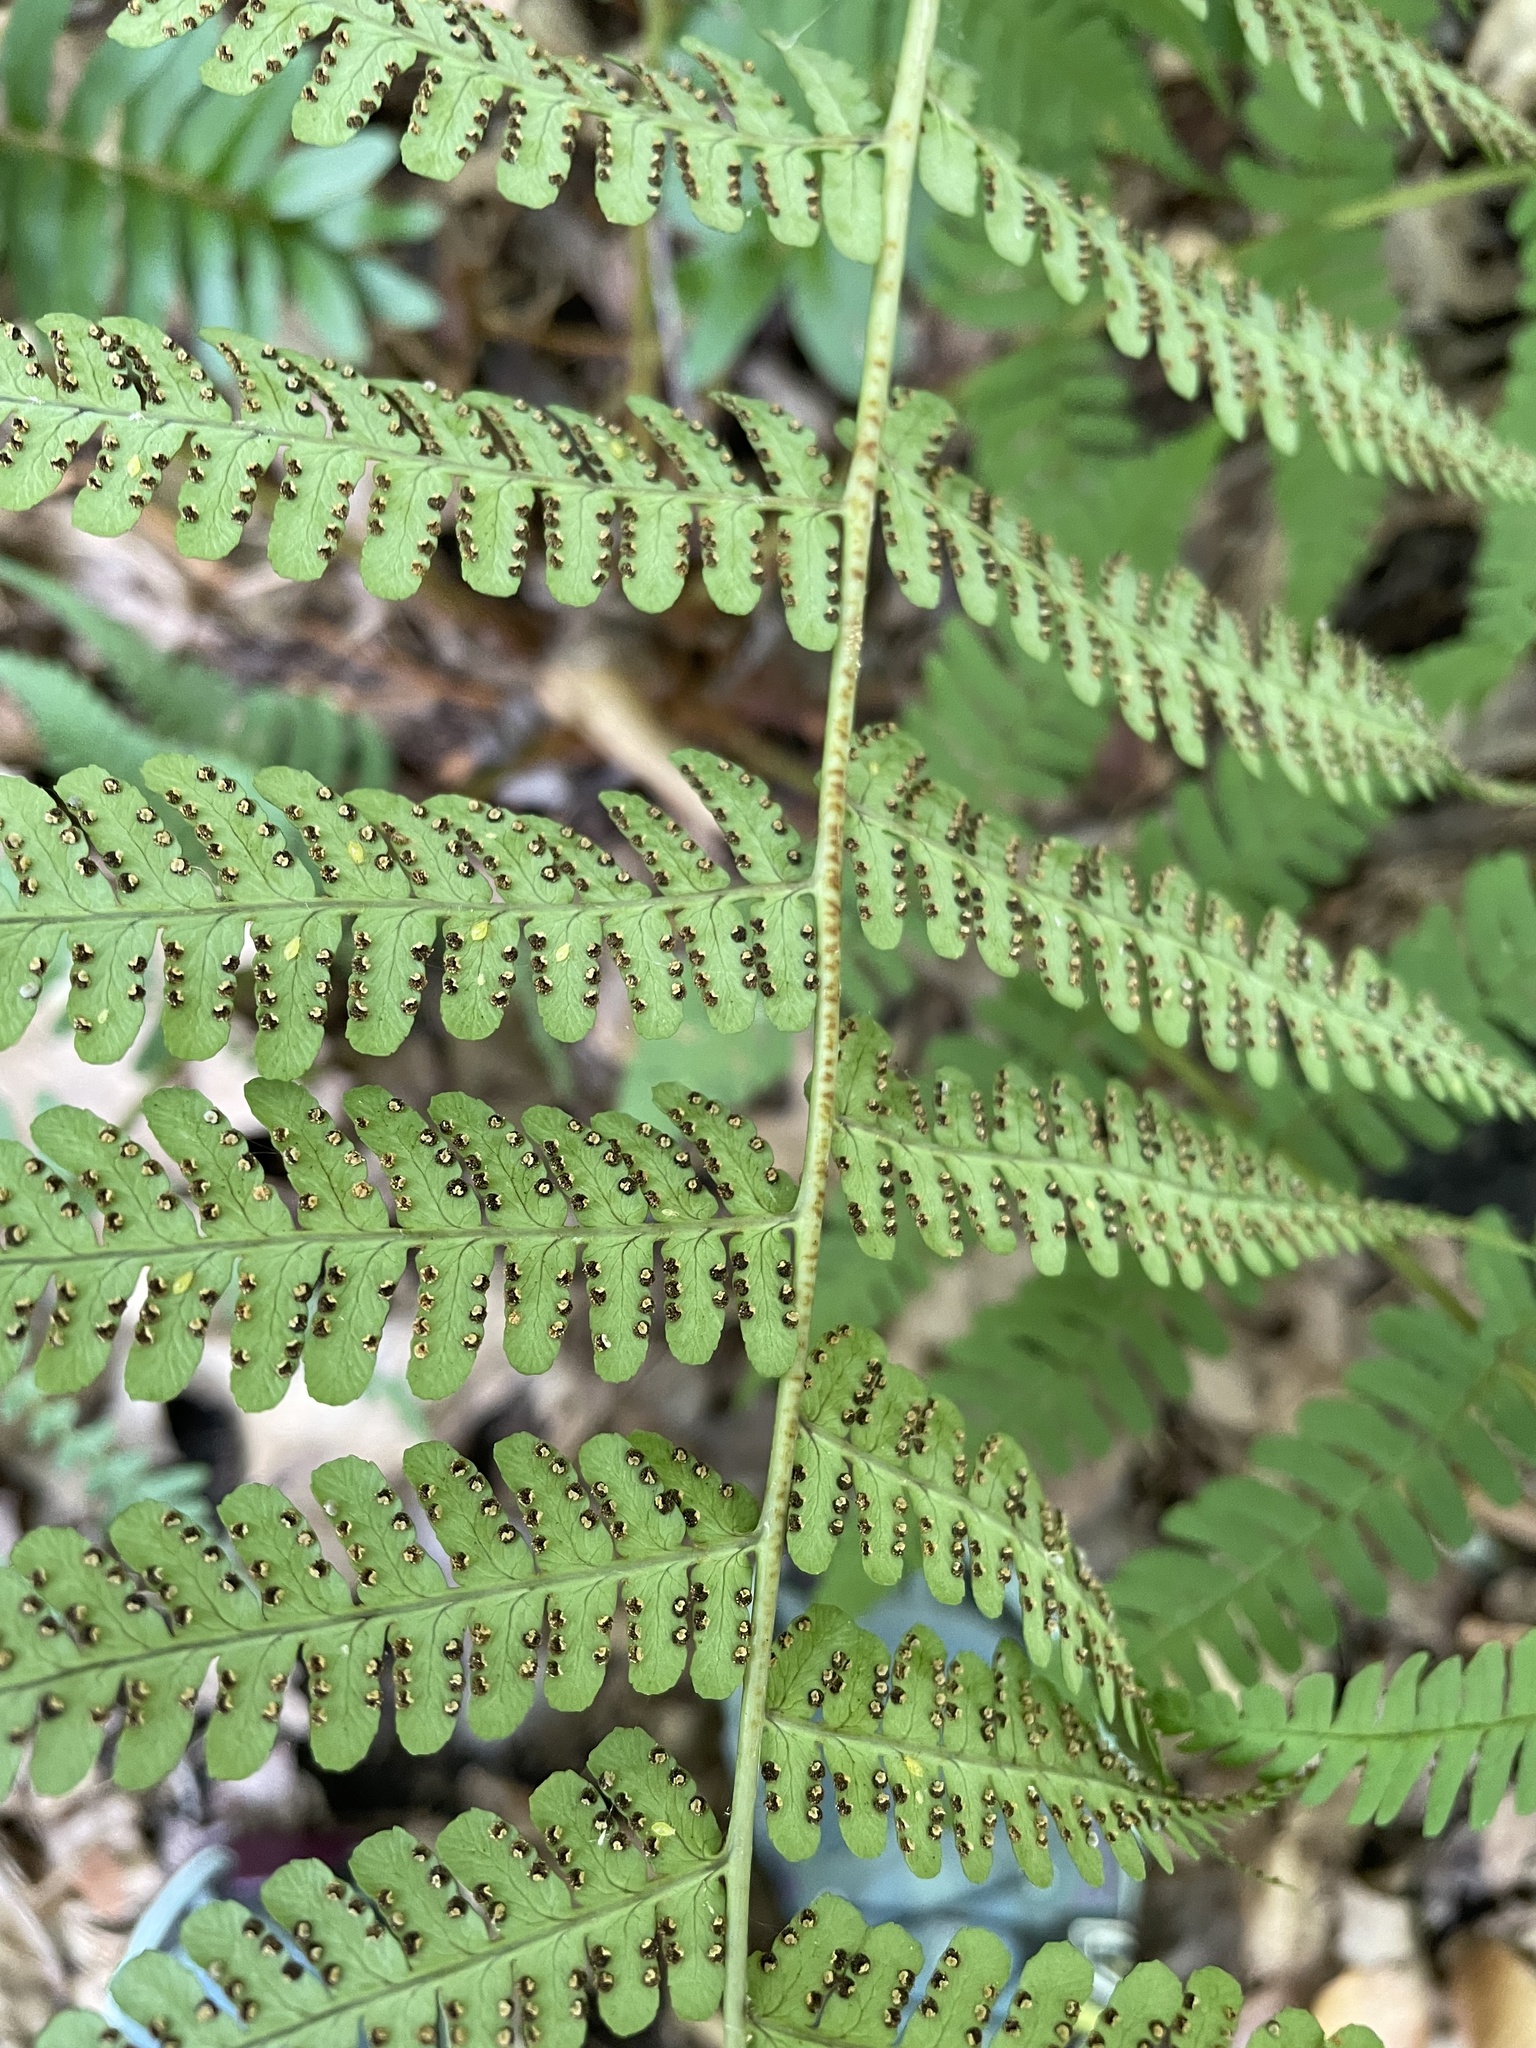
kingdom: Plantae
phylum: Tracheophyta
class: Polypodiopsida
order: Polypodiales
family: Dryopteridaceae
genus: Dryopteris
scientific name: Dryopteris marginalis
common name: Marginal wood fern
